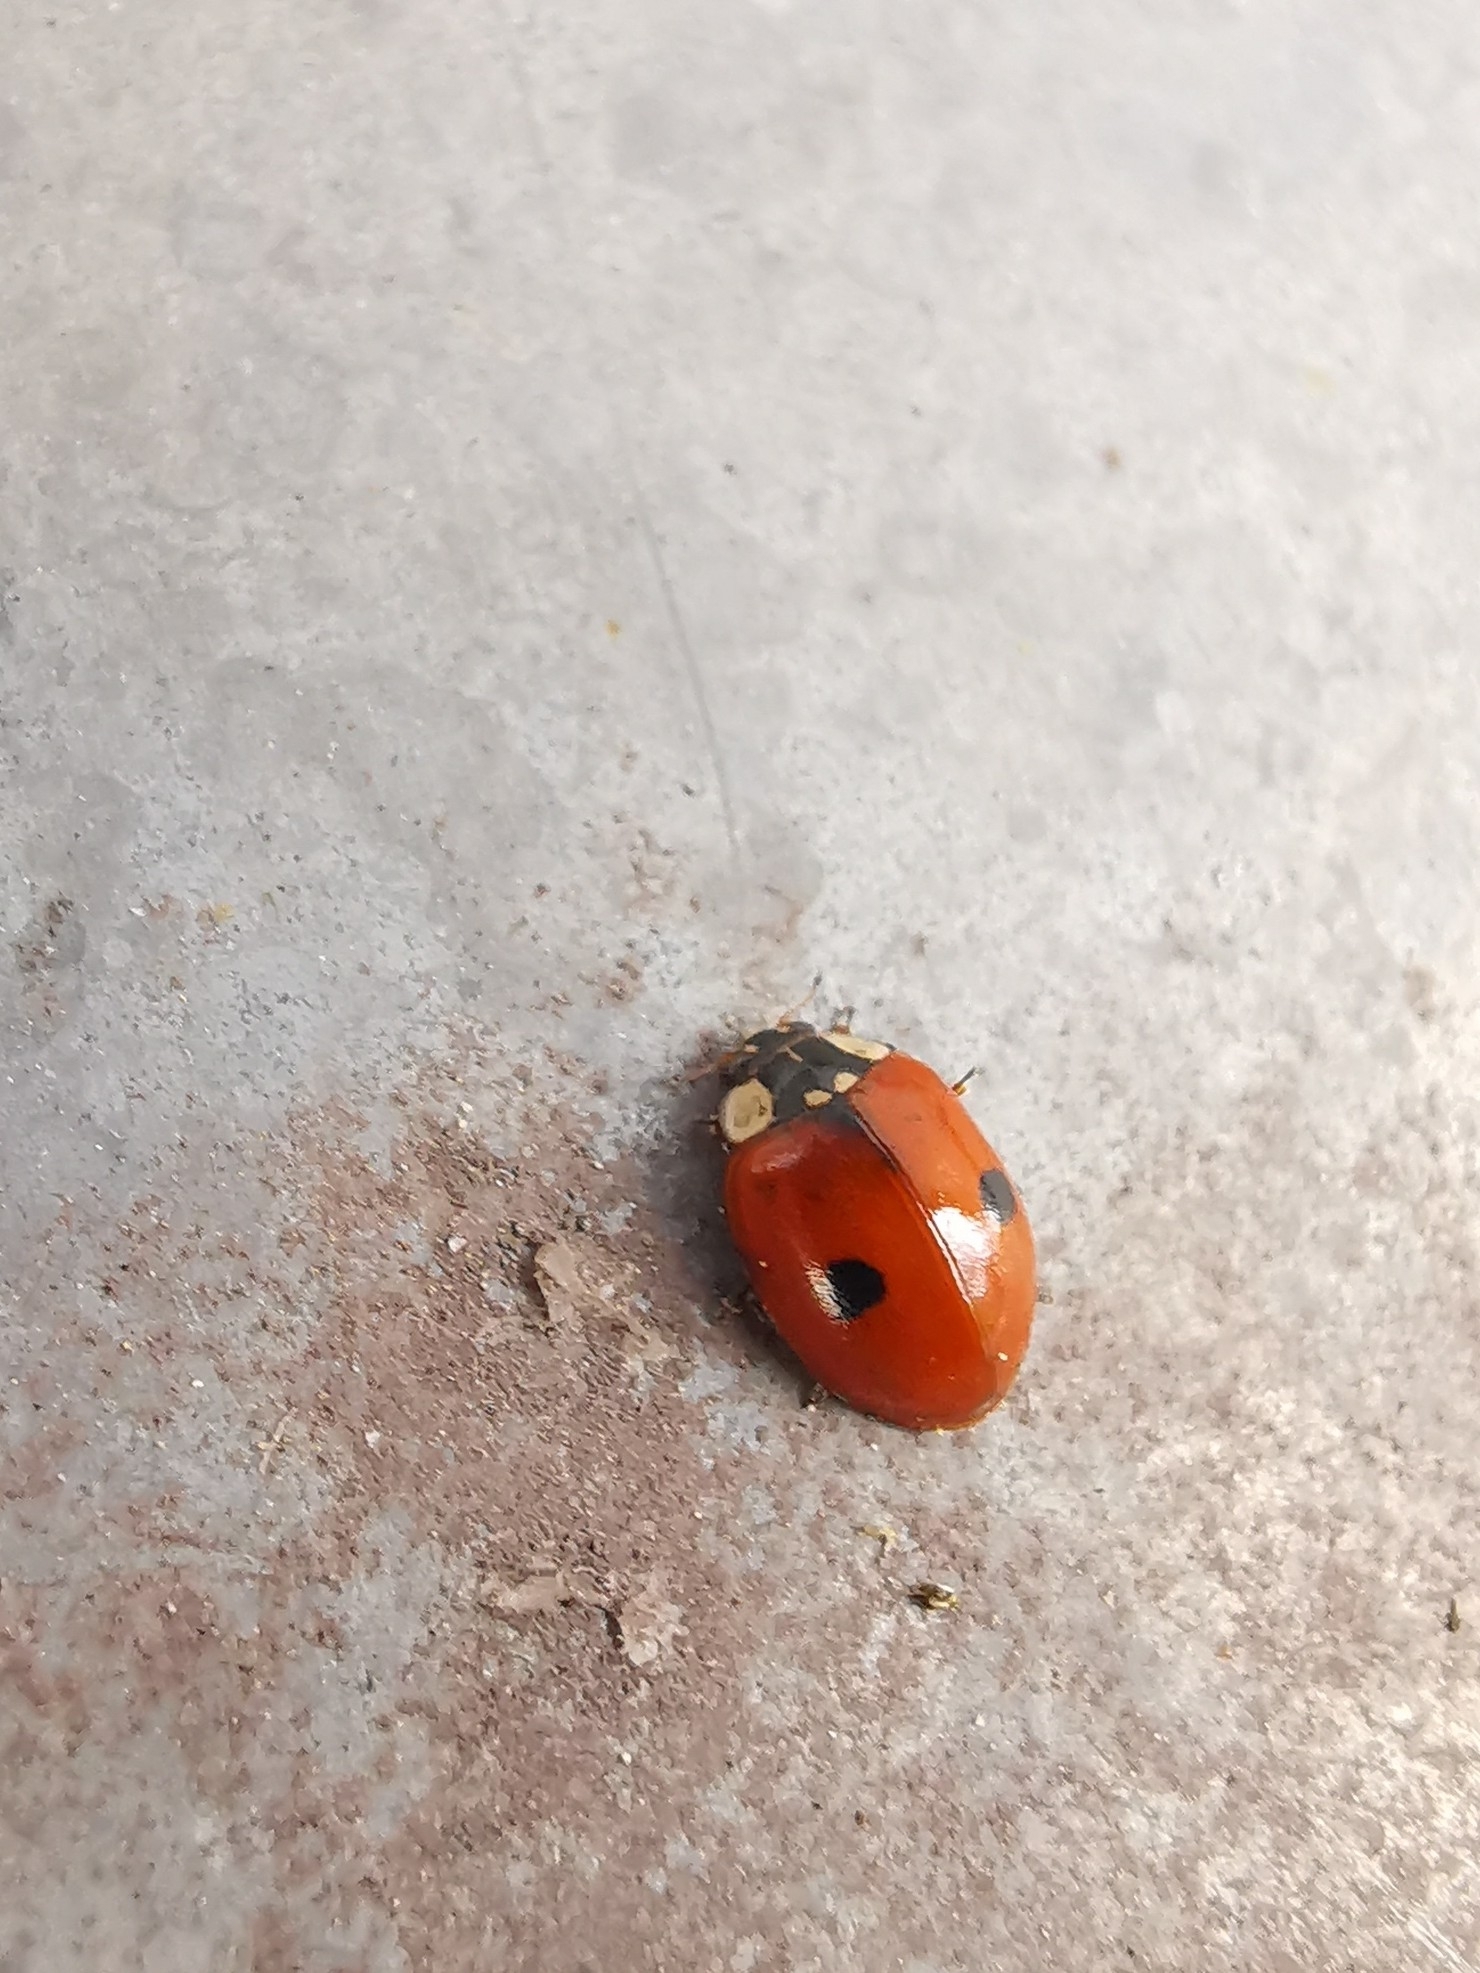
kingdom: Animalia
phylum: Arthropoda
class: Insecta
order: Coleoptera
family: Coccinellidae
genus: Adalia
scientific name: Adalia bipunctata
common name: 2-spot ladybird
